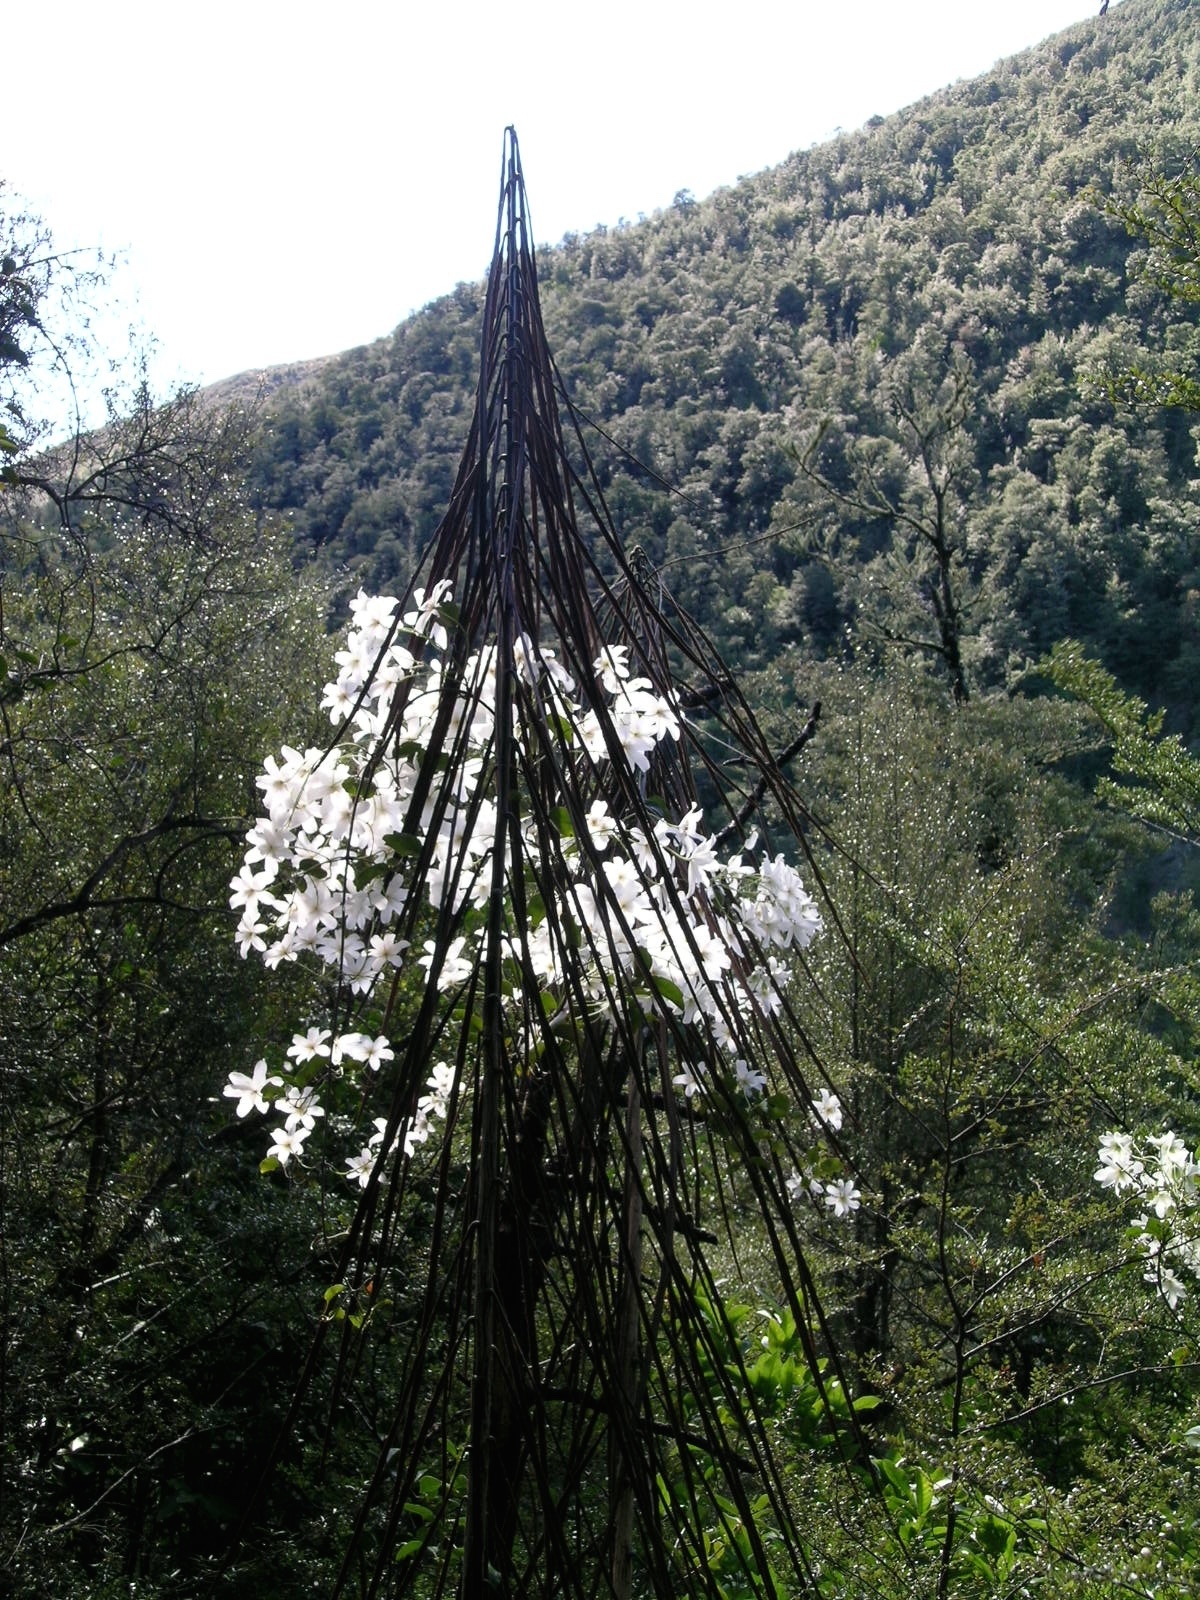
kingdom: Plantae
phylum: Tracheophyta
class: Magnoliopsida
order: Ranunculales
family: Ranunculaceae
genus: Clematis
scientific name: Clematis paniculata
